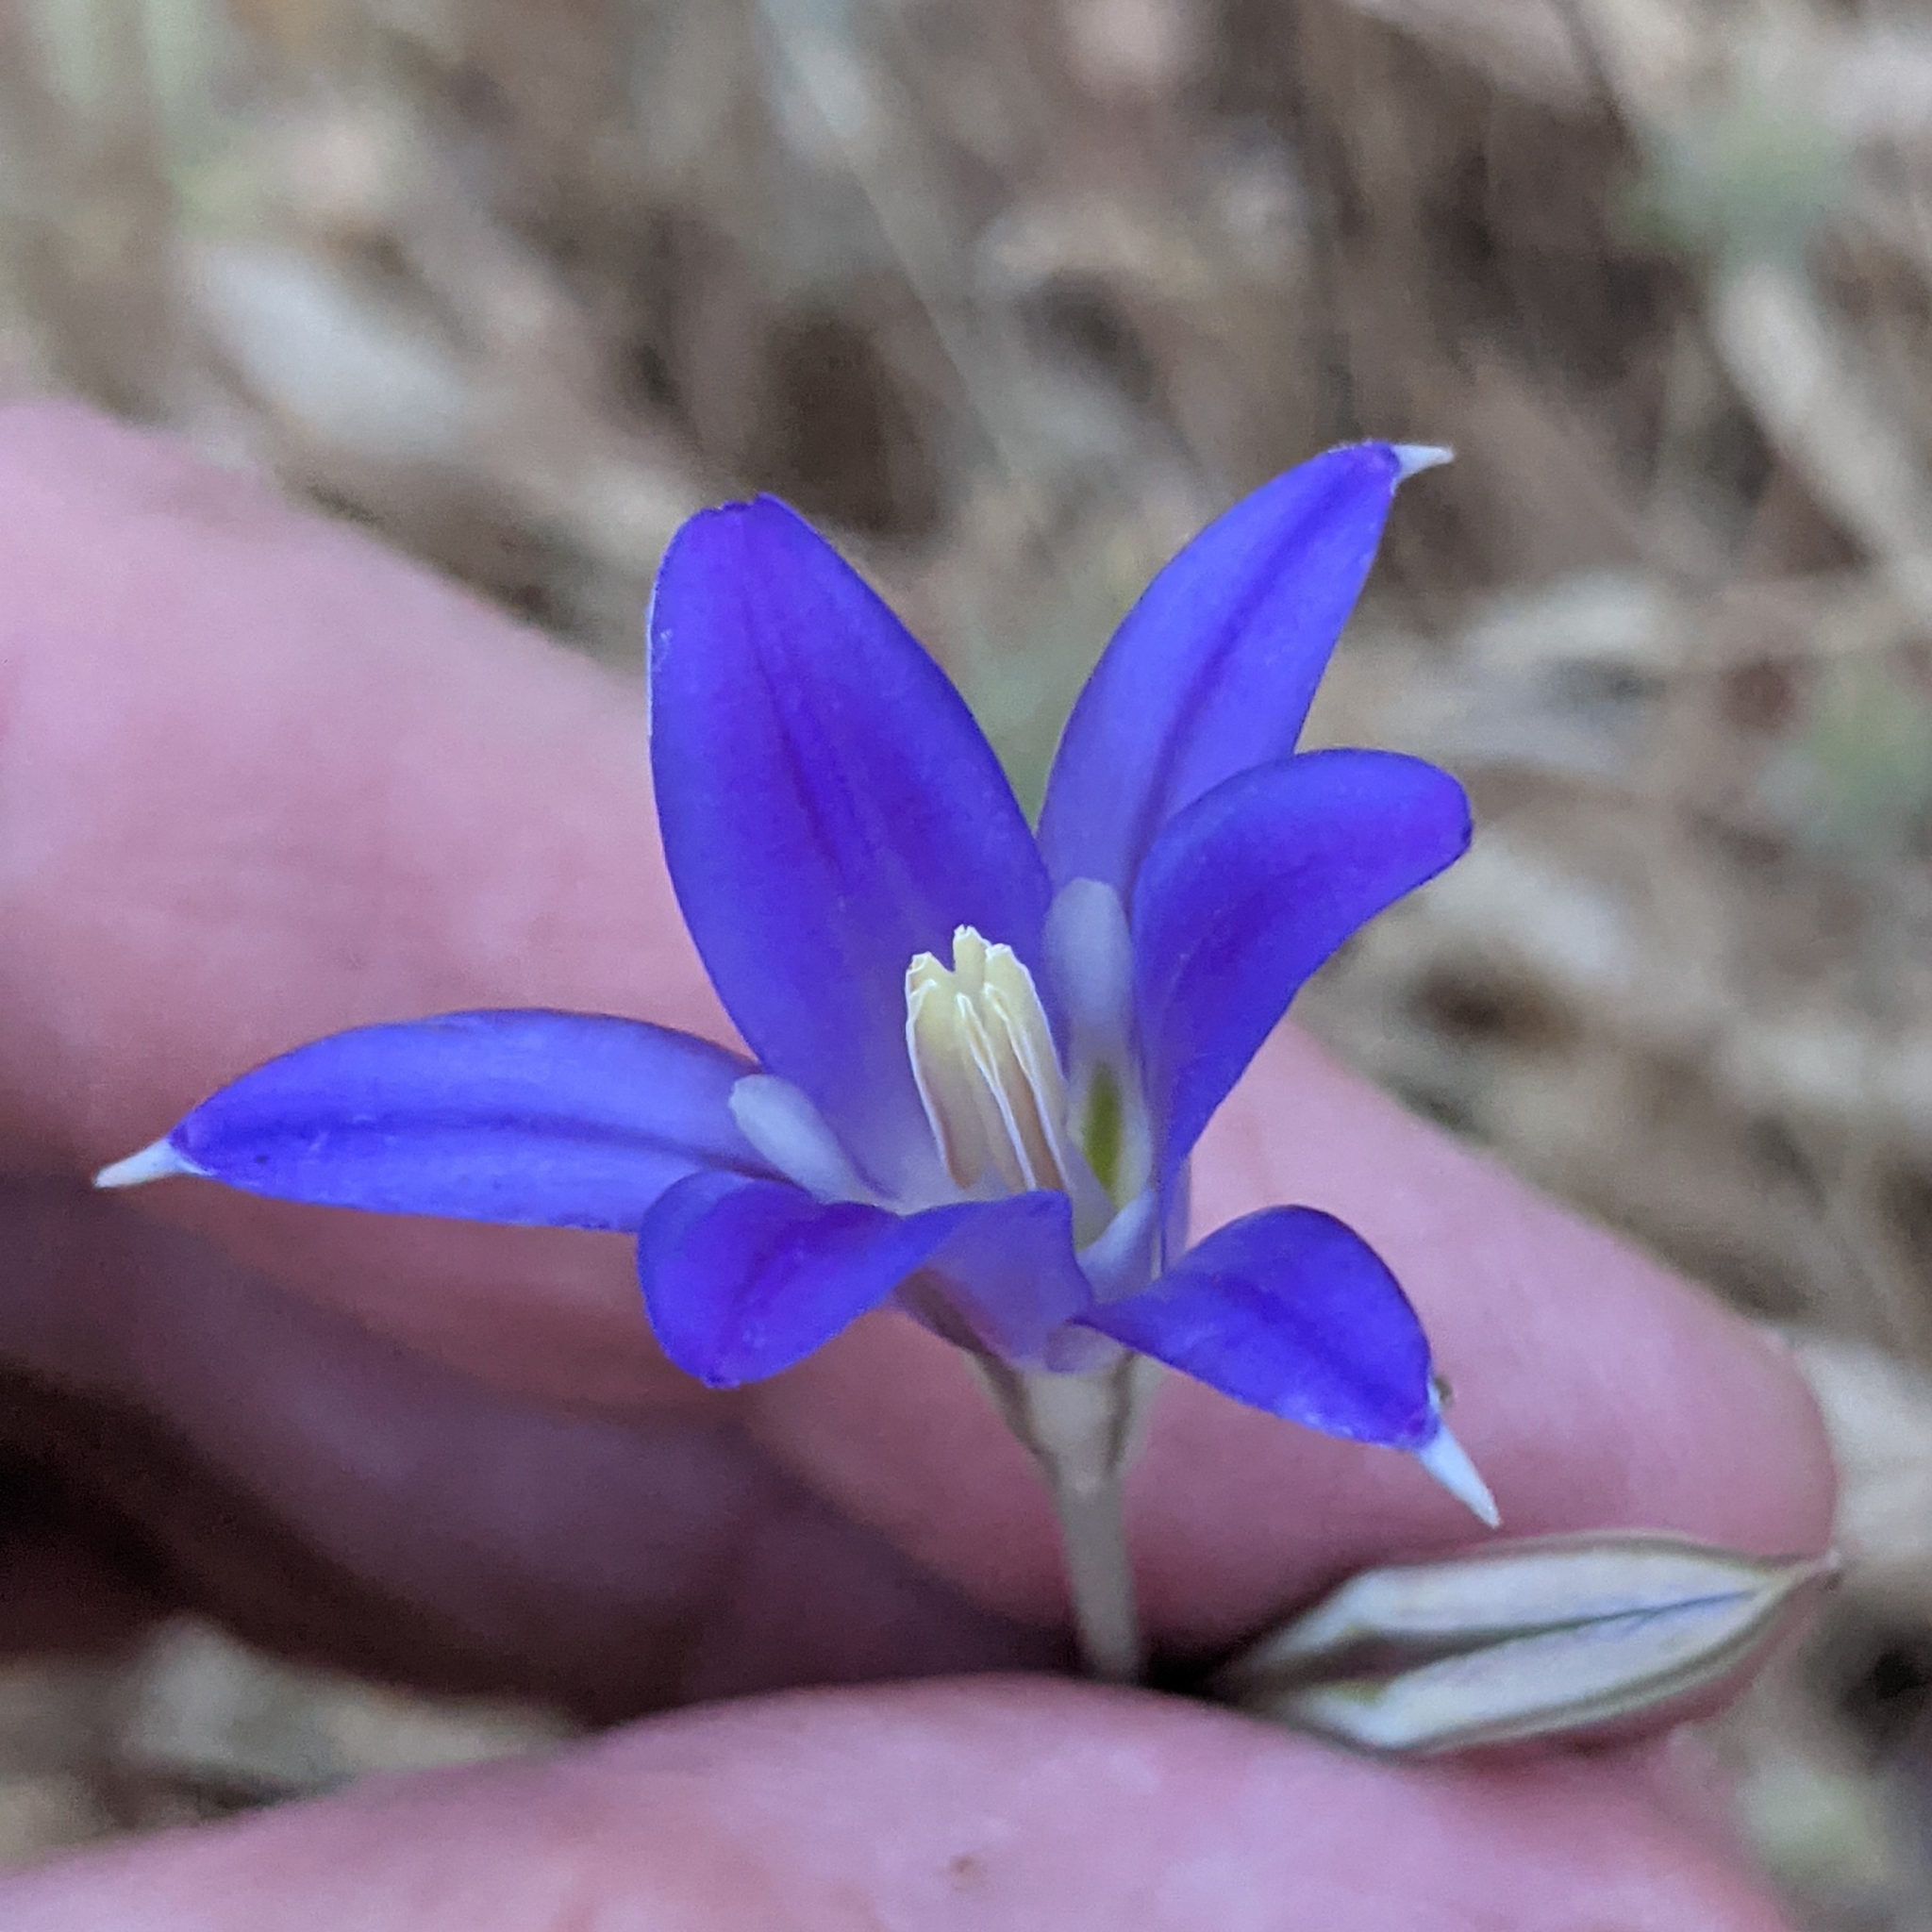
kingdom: Plantae
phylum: Tracheophyta
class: Liliopsida
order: Asparagales
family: Asparagaceae
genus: Brodiaea
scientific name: Brodiaea elegans
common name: Elegant cluster-lily
